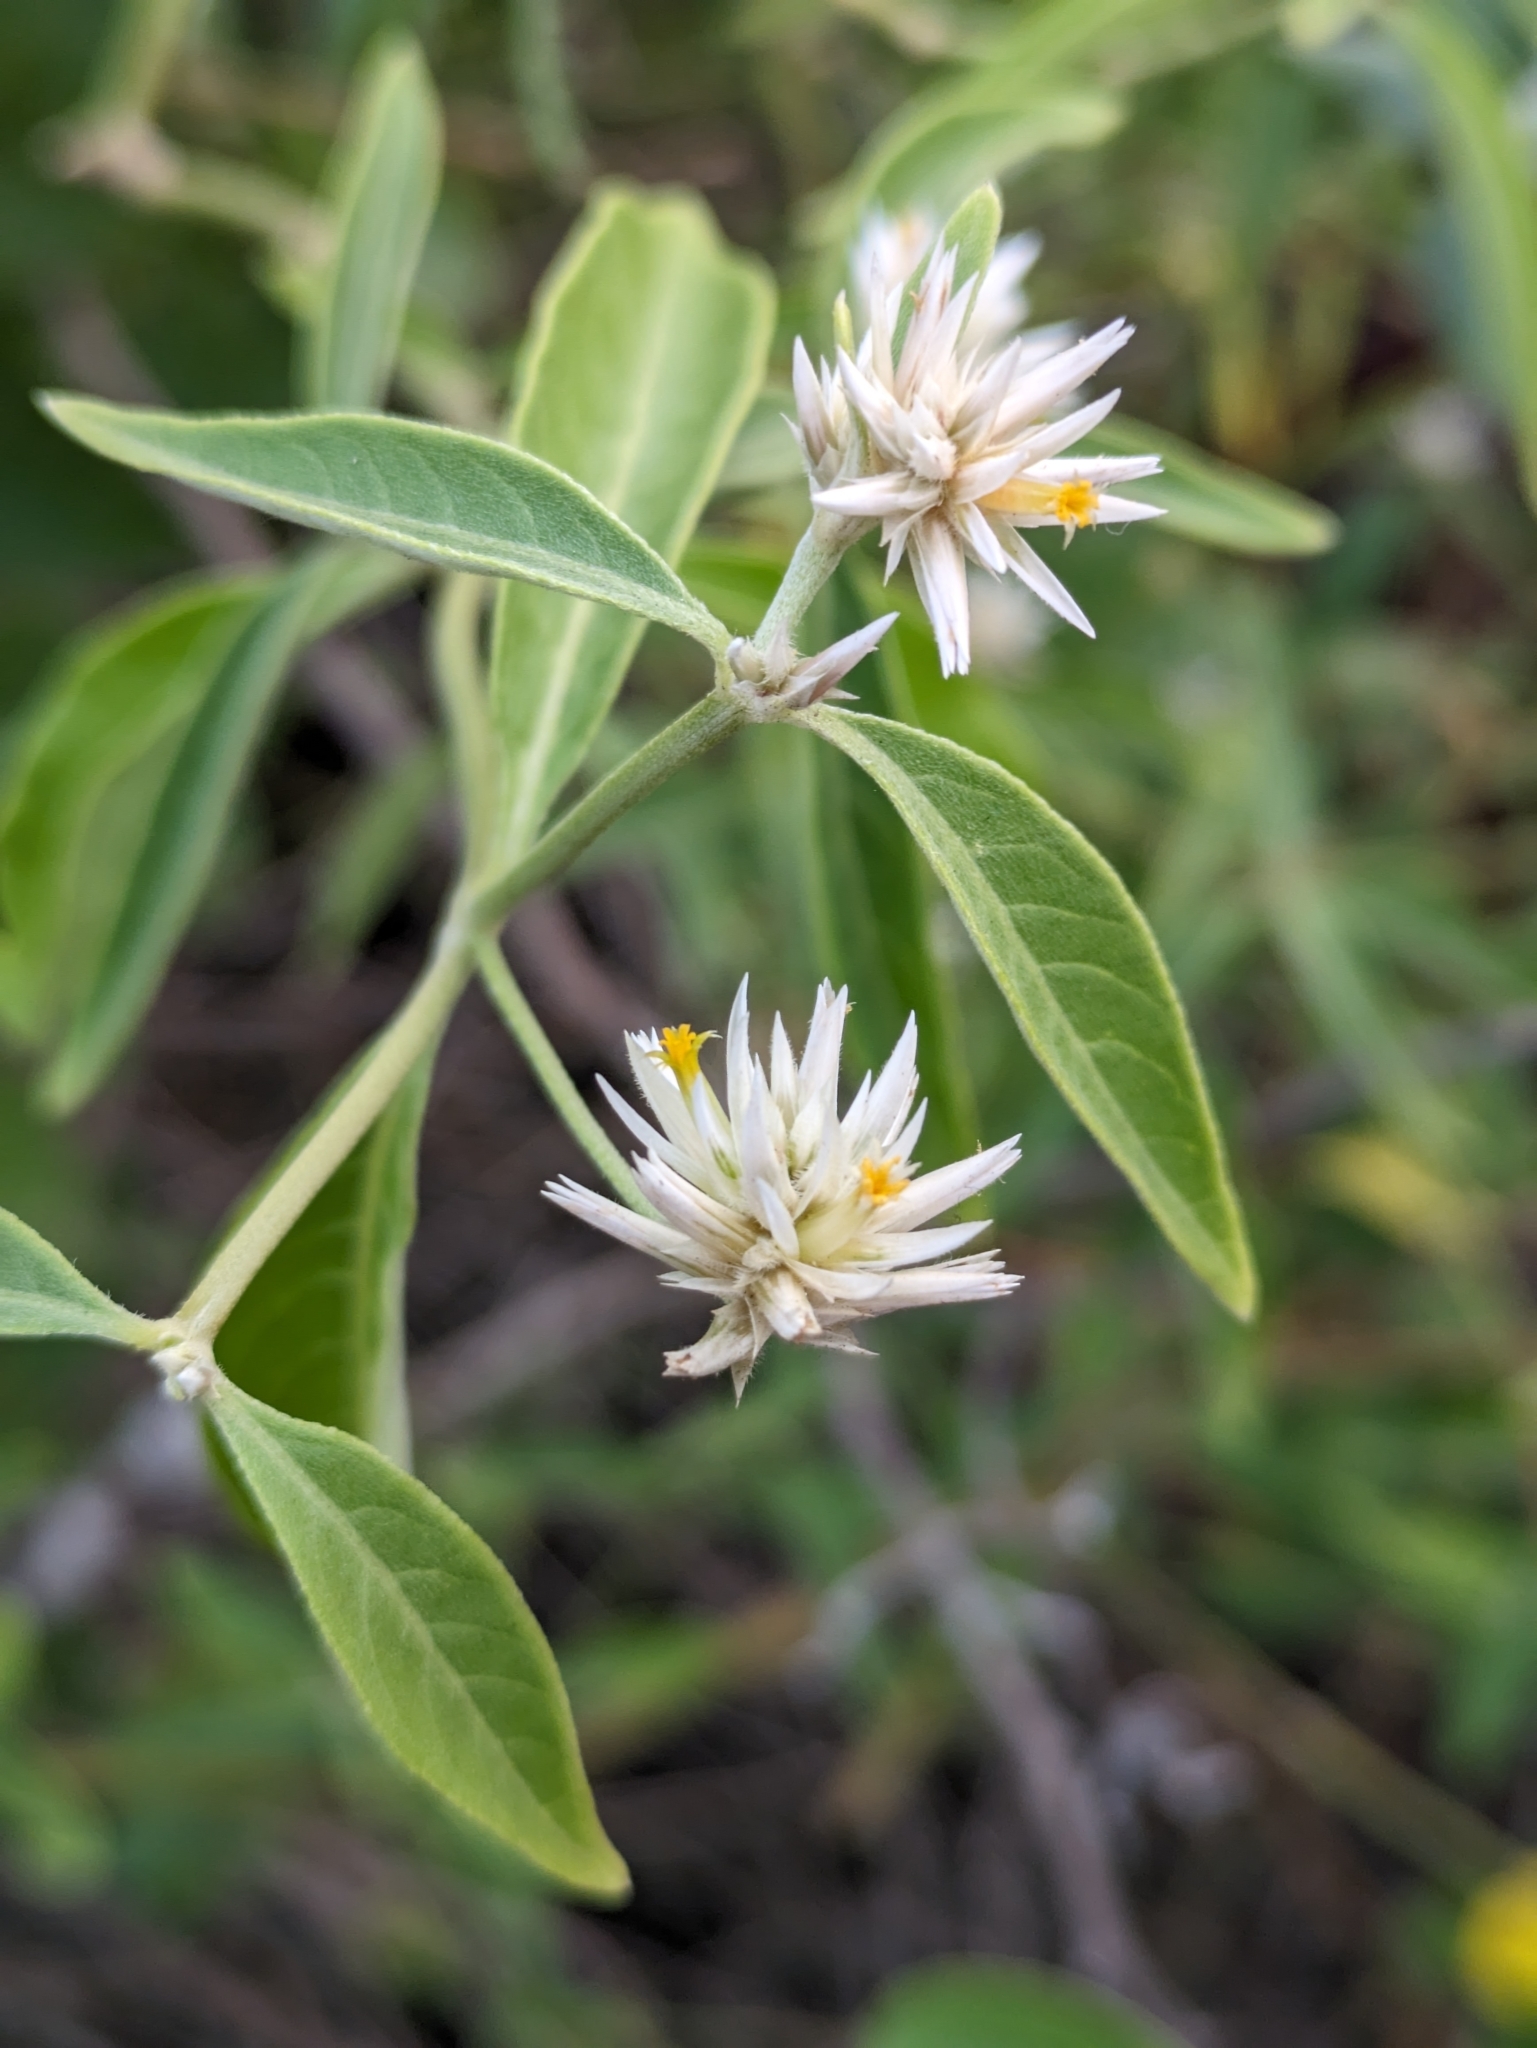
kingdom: Plantae
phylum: Tracheophyta
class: Magnoliopsida
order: Caryophyllales
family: Amaranthaceae
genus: Alternanthera
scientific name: Alternanthera echinocephala
